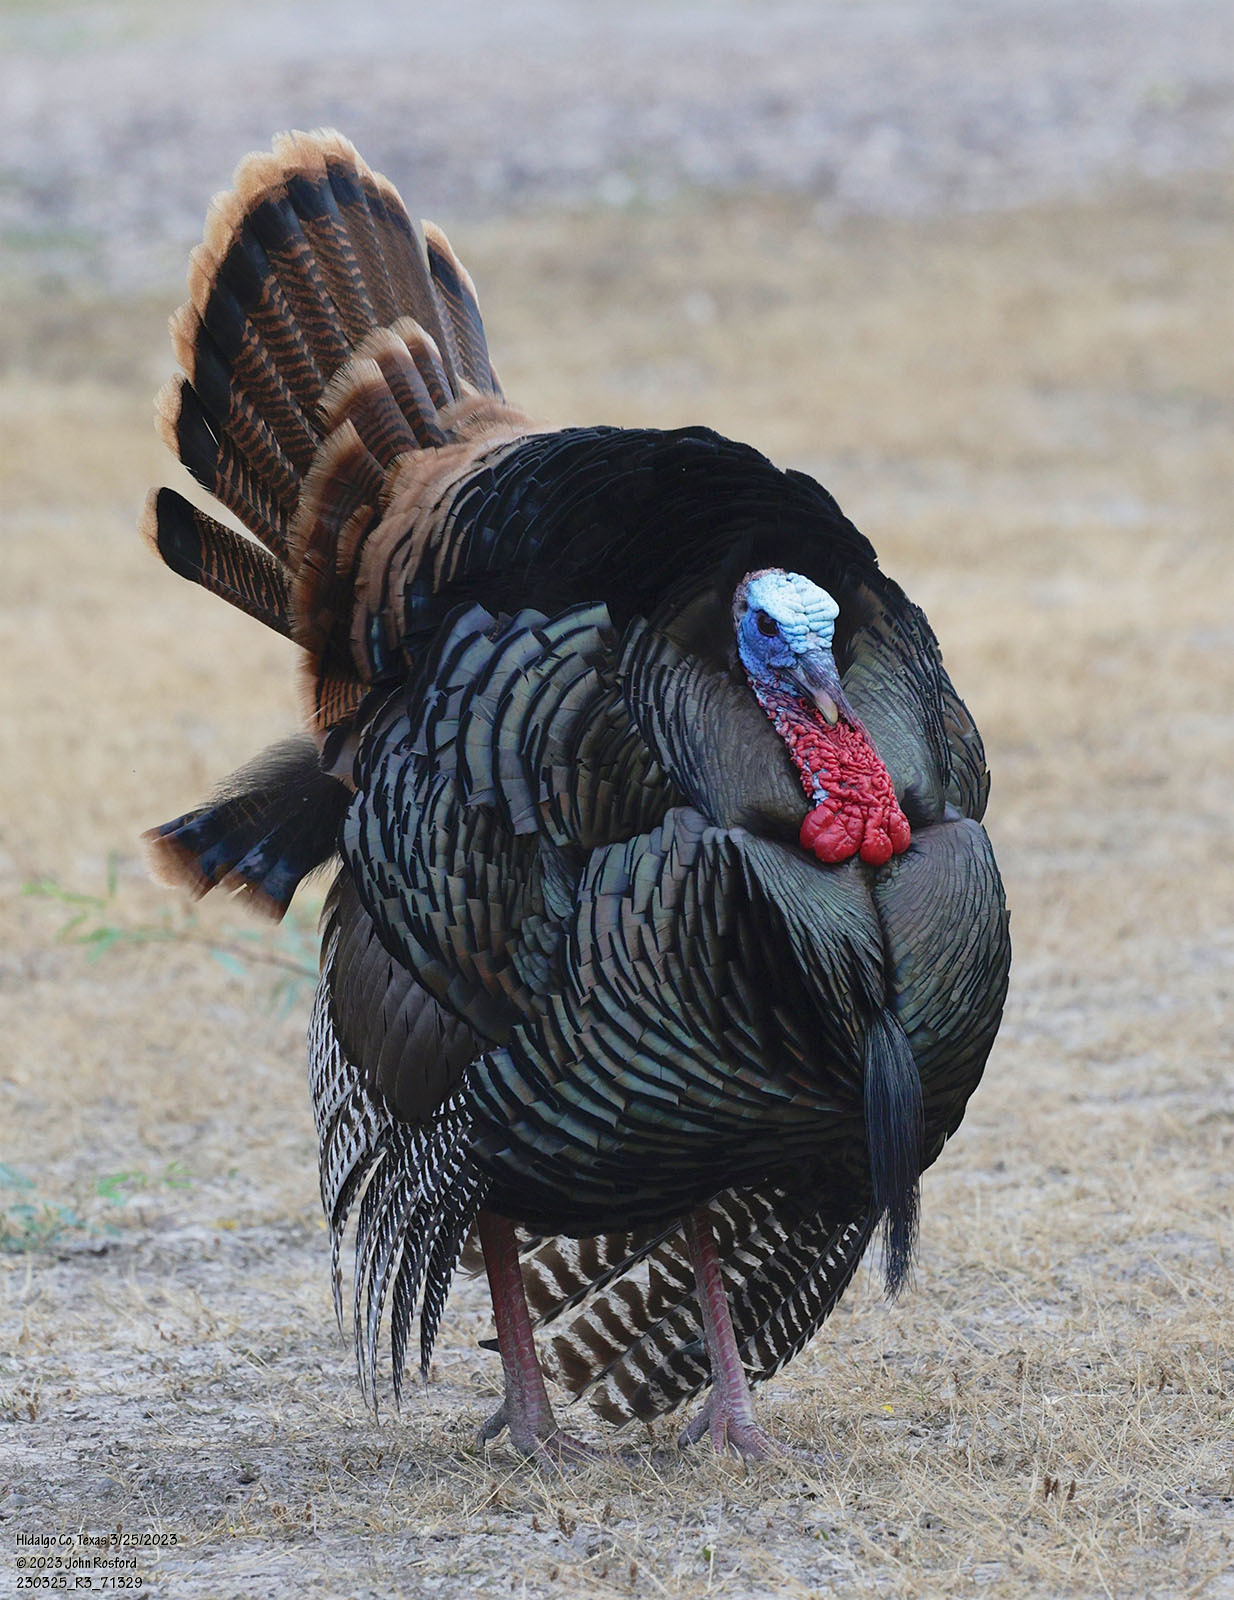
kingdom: Animalia
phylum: Chordata
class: Aves
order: Galliformes
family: Phasianidae
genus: Meleagris
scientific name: Meleagris gallopavo
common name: Wild turkey
